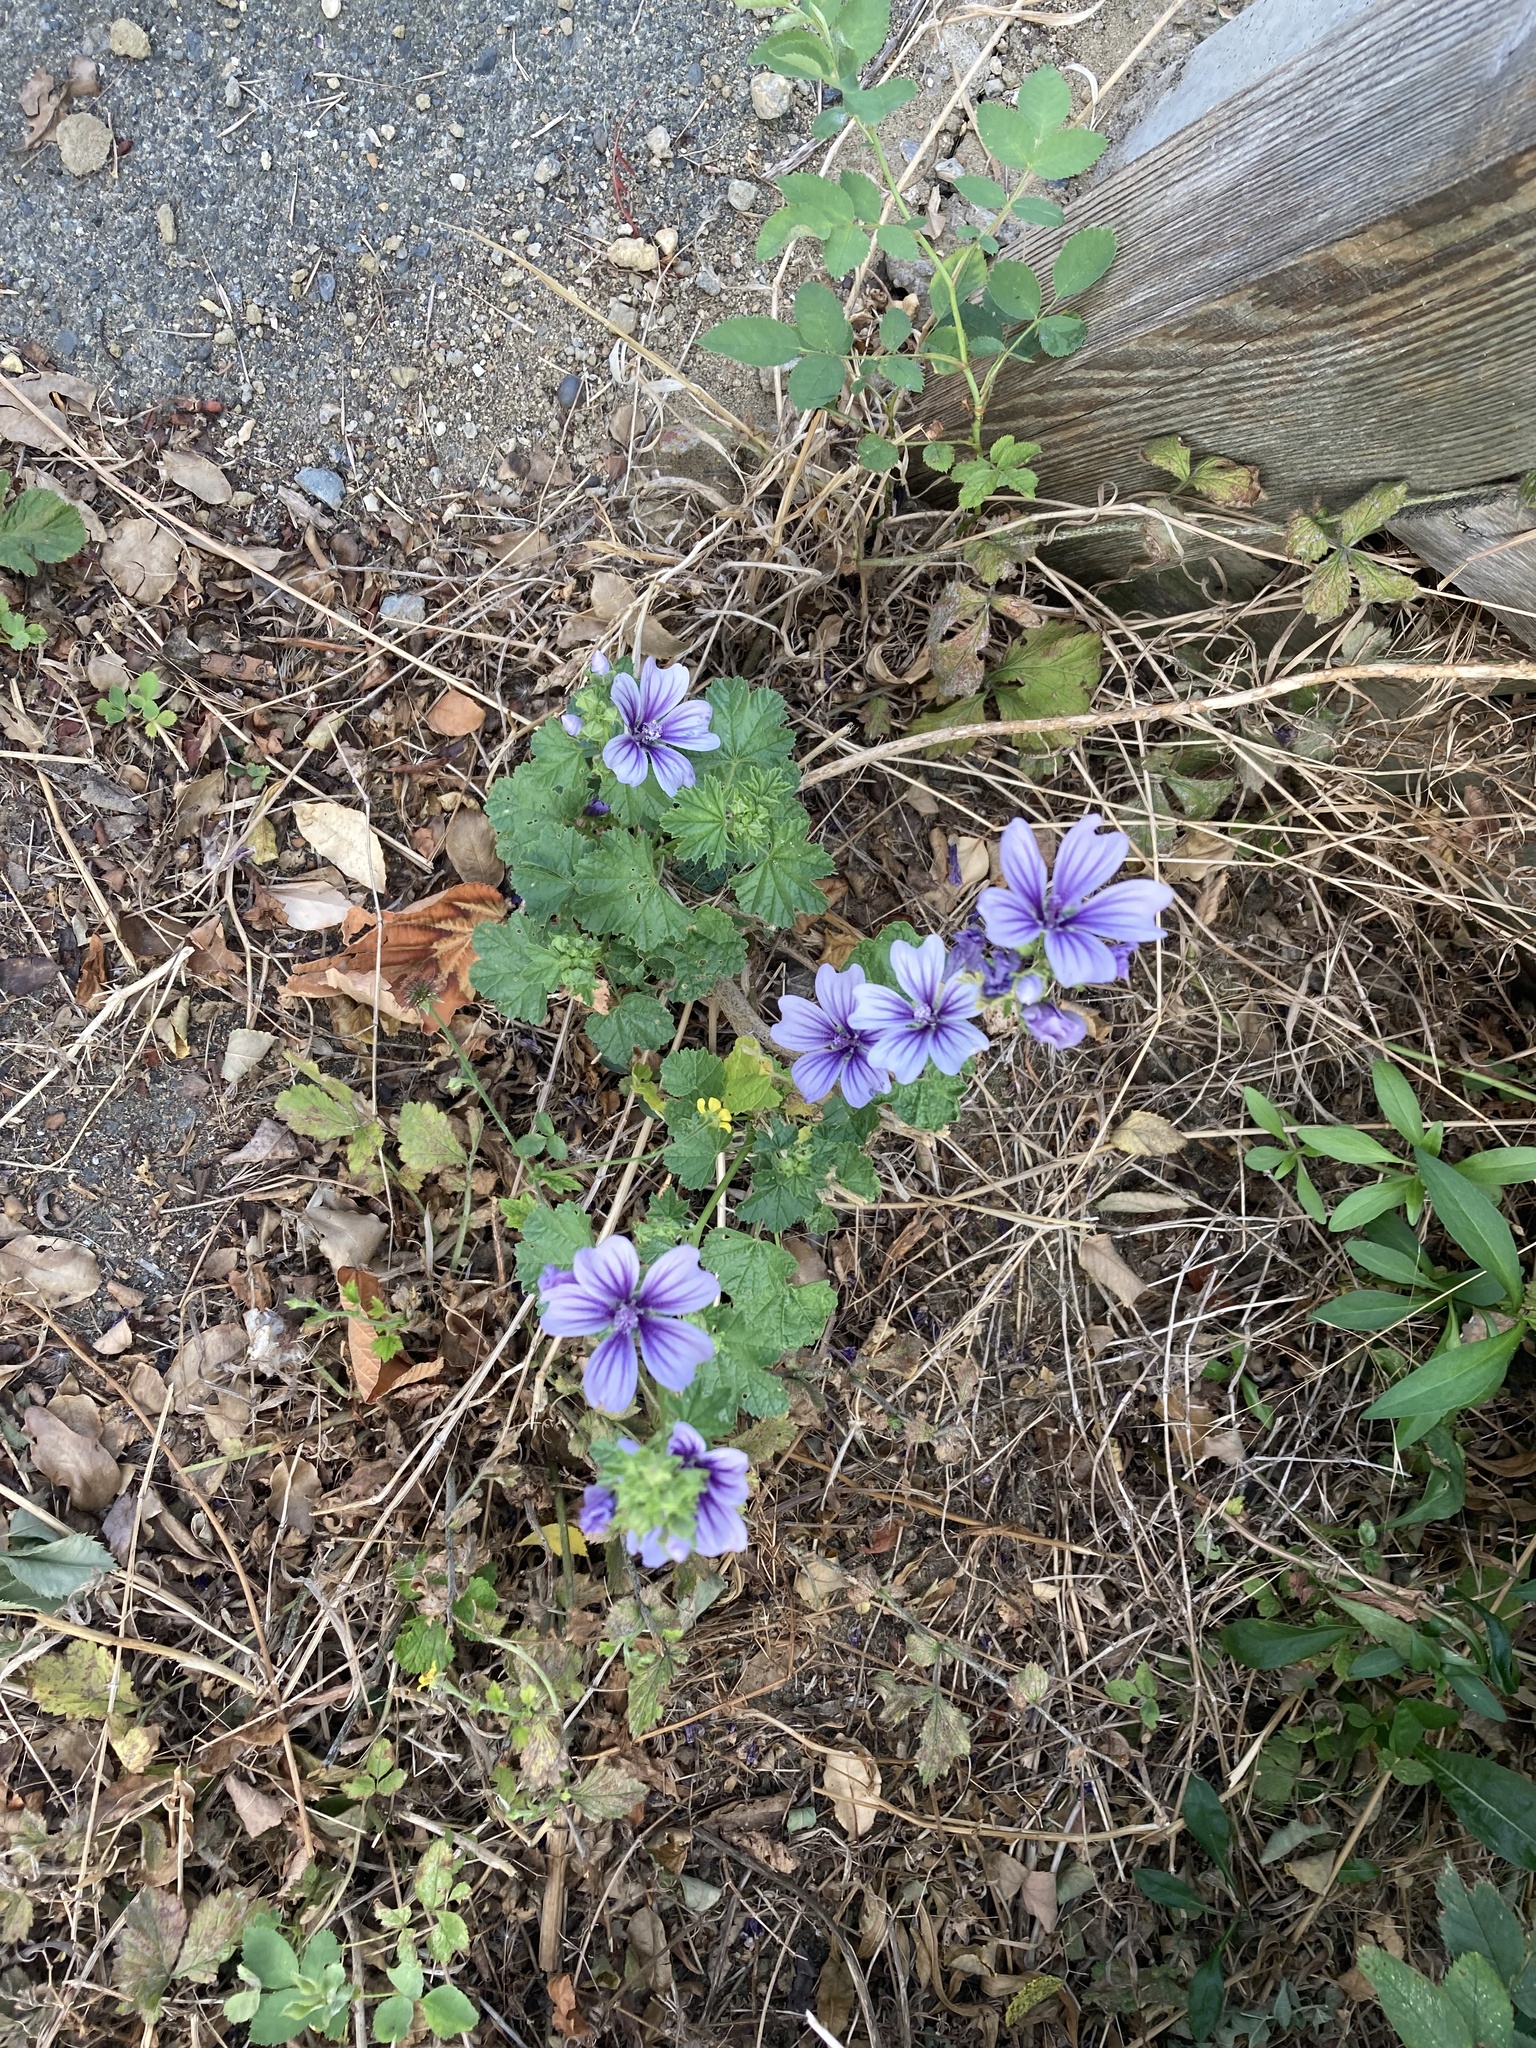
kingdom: Plantae
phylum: Tracheophyta
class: Magnoliopsida
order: Malvales
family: Malvaceae
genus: Malva
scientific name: Malva sylvestris
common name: Common mallow
